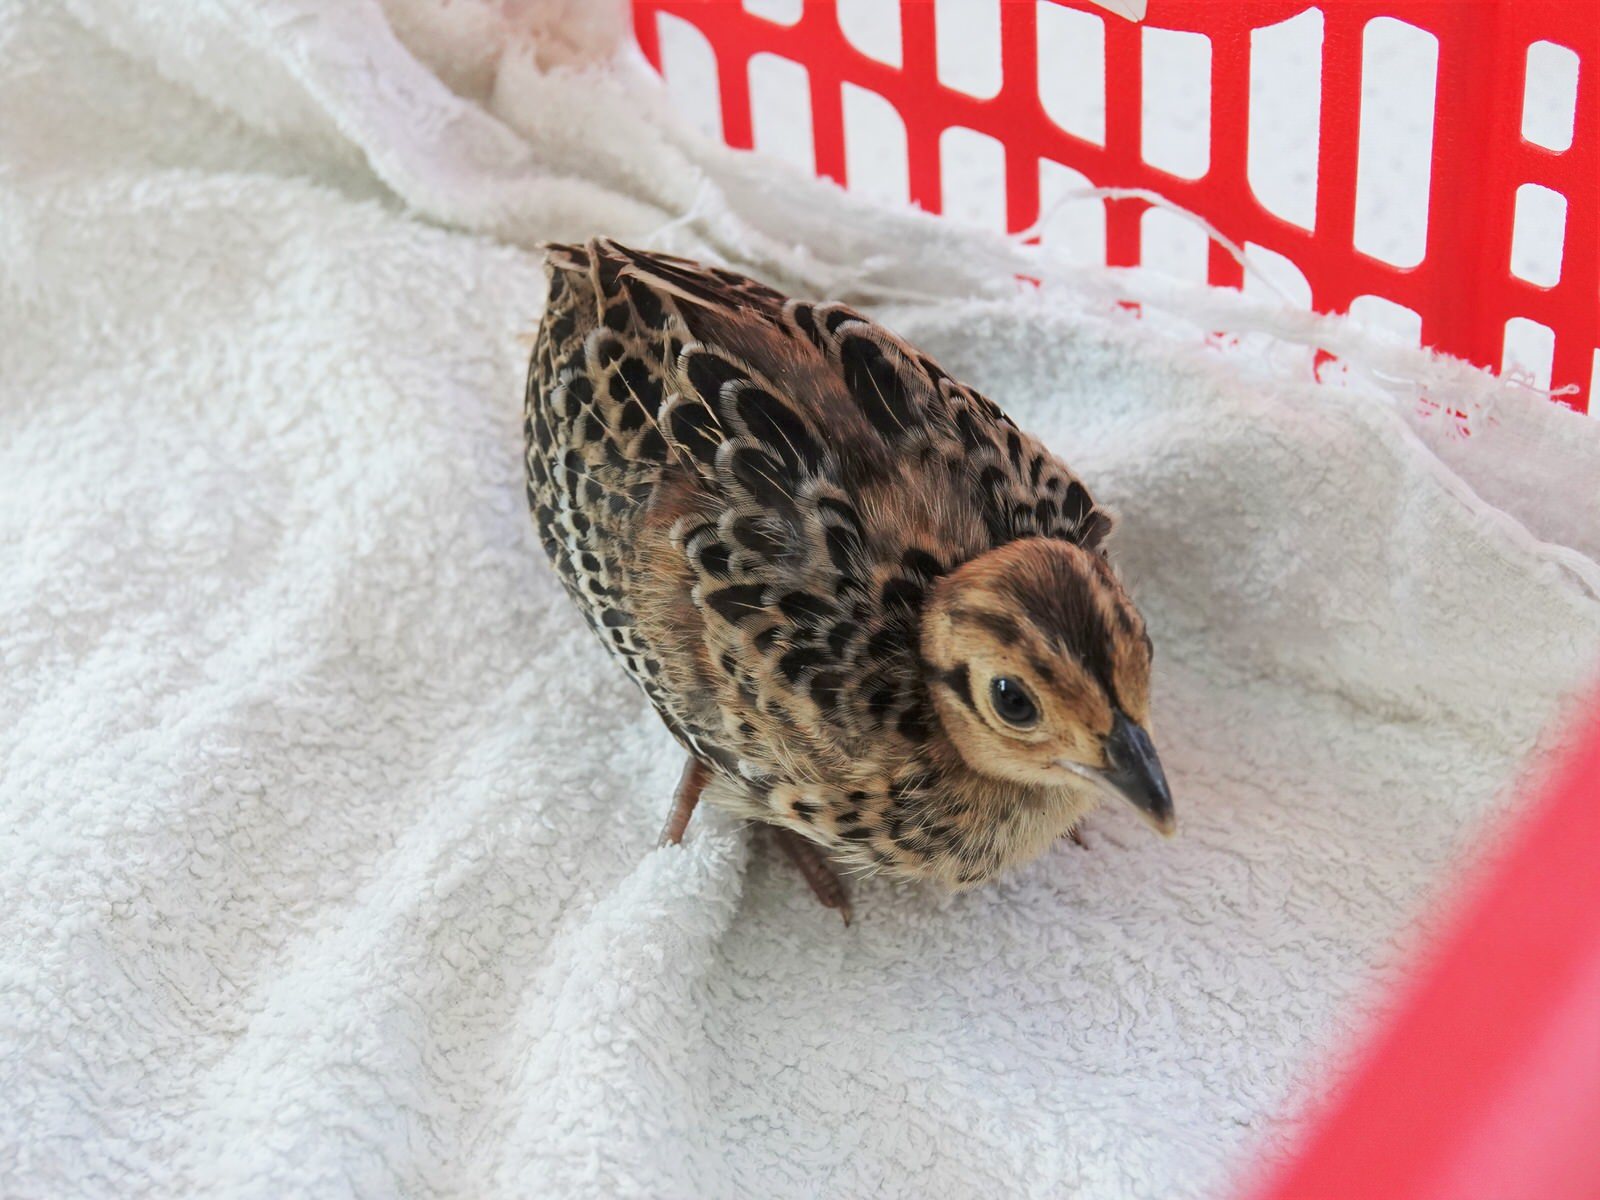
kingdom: Animalia
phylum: Chordata
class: Aves
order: Galliformes
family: Phasianidae
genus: Phasianus
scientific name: Phasianus colchicus
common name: Common pheasant
